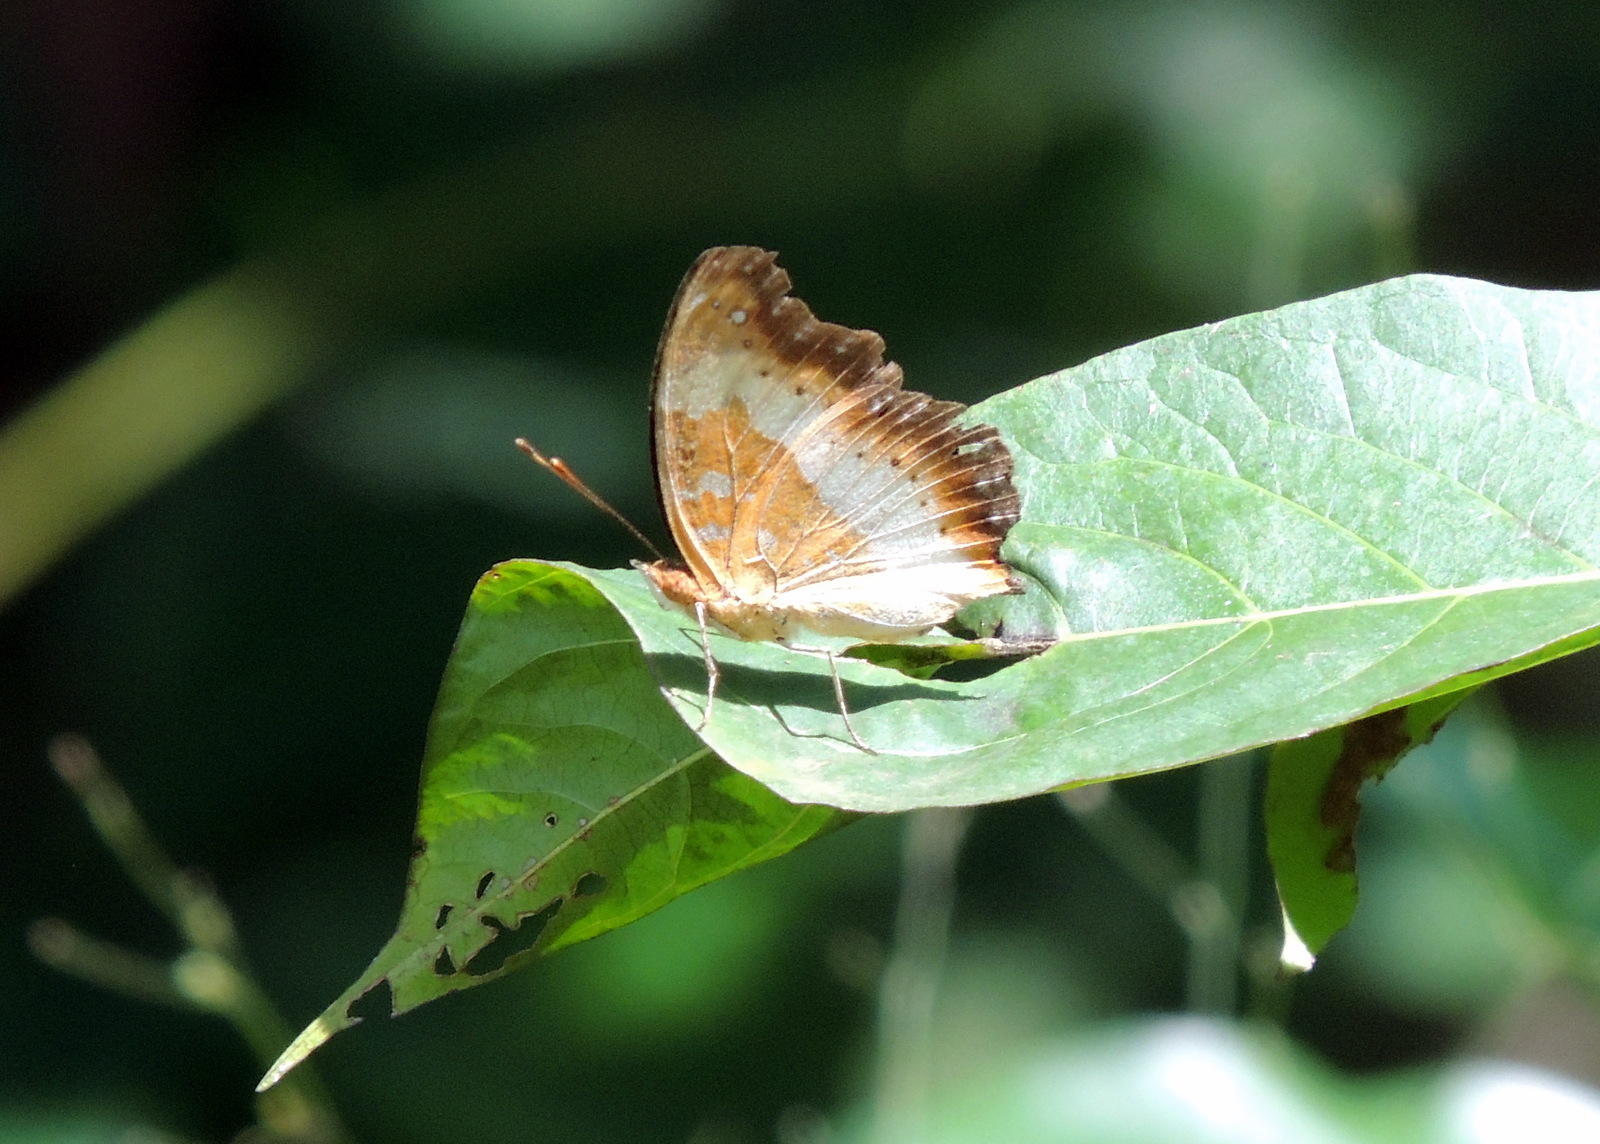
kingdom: Animalia
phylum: Arthropoda
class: Insecta
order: Lepidoptera
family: Nymphalidae
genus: Precis
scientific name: Precis pelarga
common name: Fashion commodore
